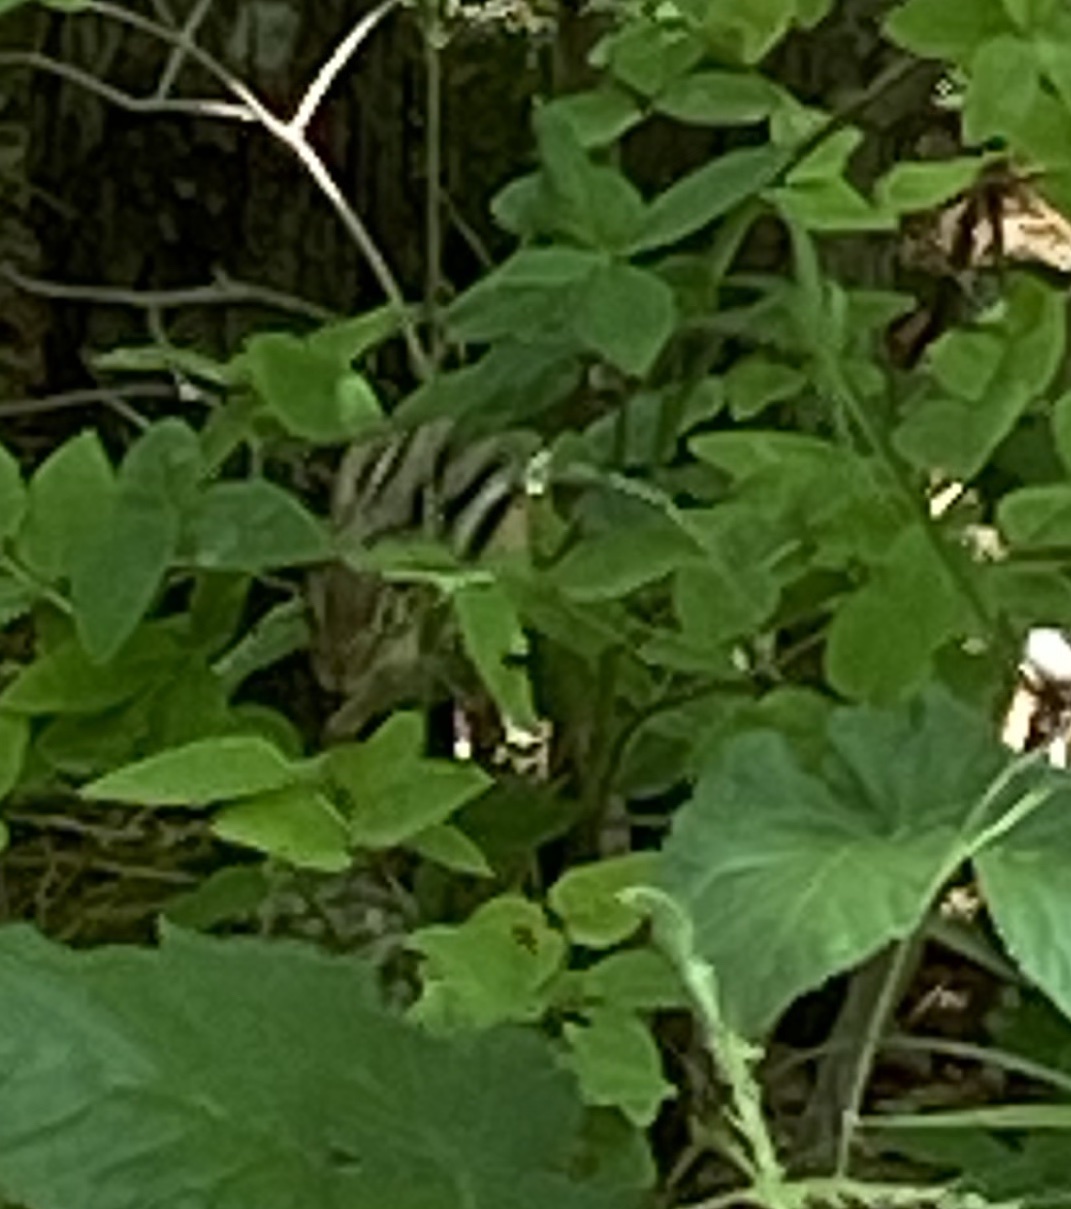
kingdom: Animalia
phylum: Chordata
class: Mammalia
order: Rodentia
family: Sciuridae
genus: Tamias
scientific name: Tamias striatus
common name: Eastern chipmunk
